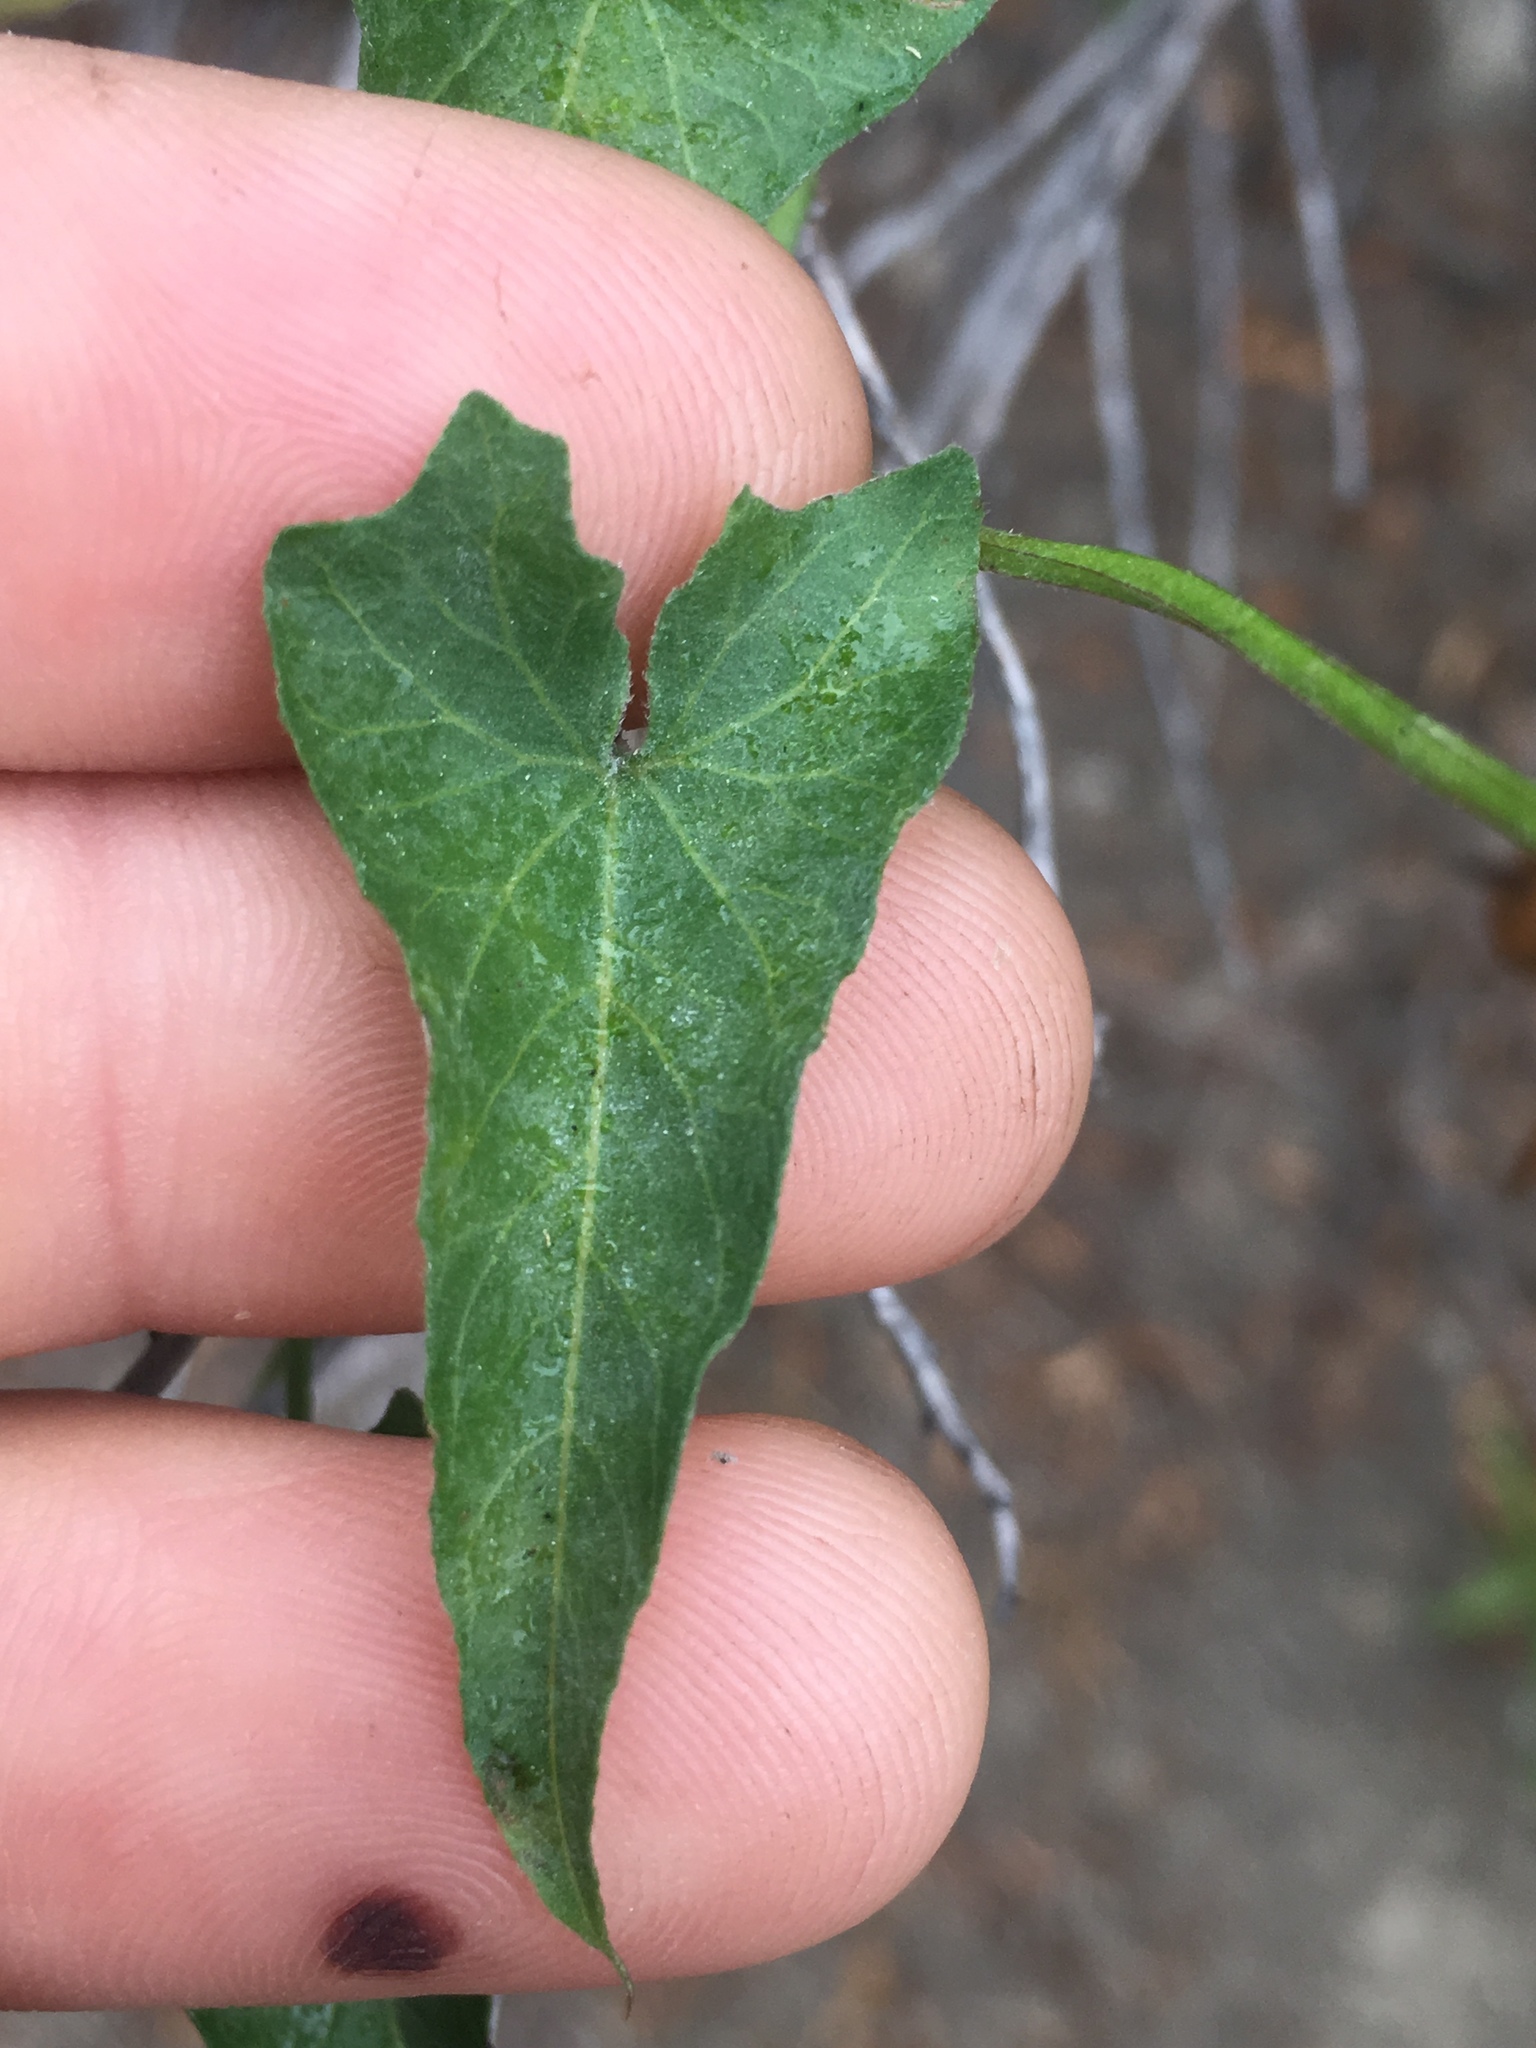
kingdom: Plantae
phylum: Tracheophyta
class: Magnoliopsida
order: Solanales
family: Convolvulaceae
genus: Calystegia
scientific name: Calystegia macrostegia
